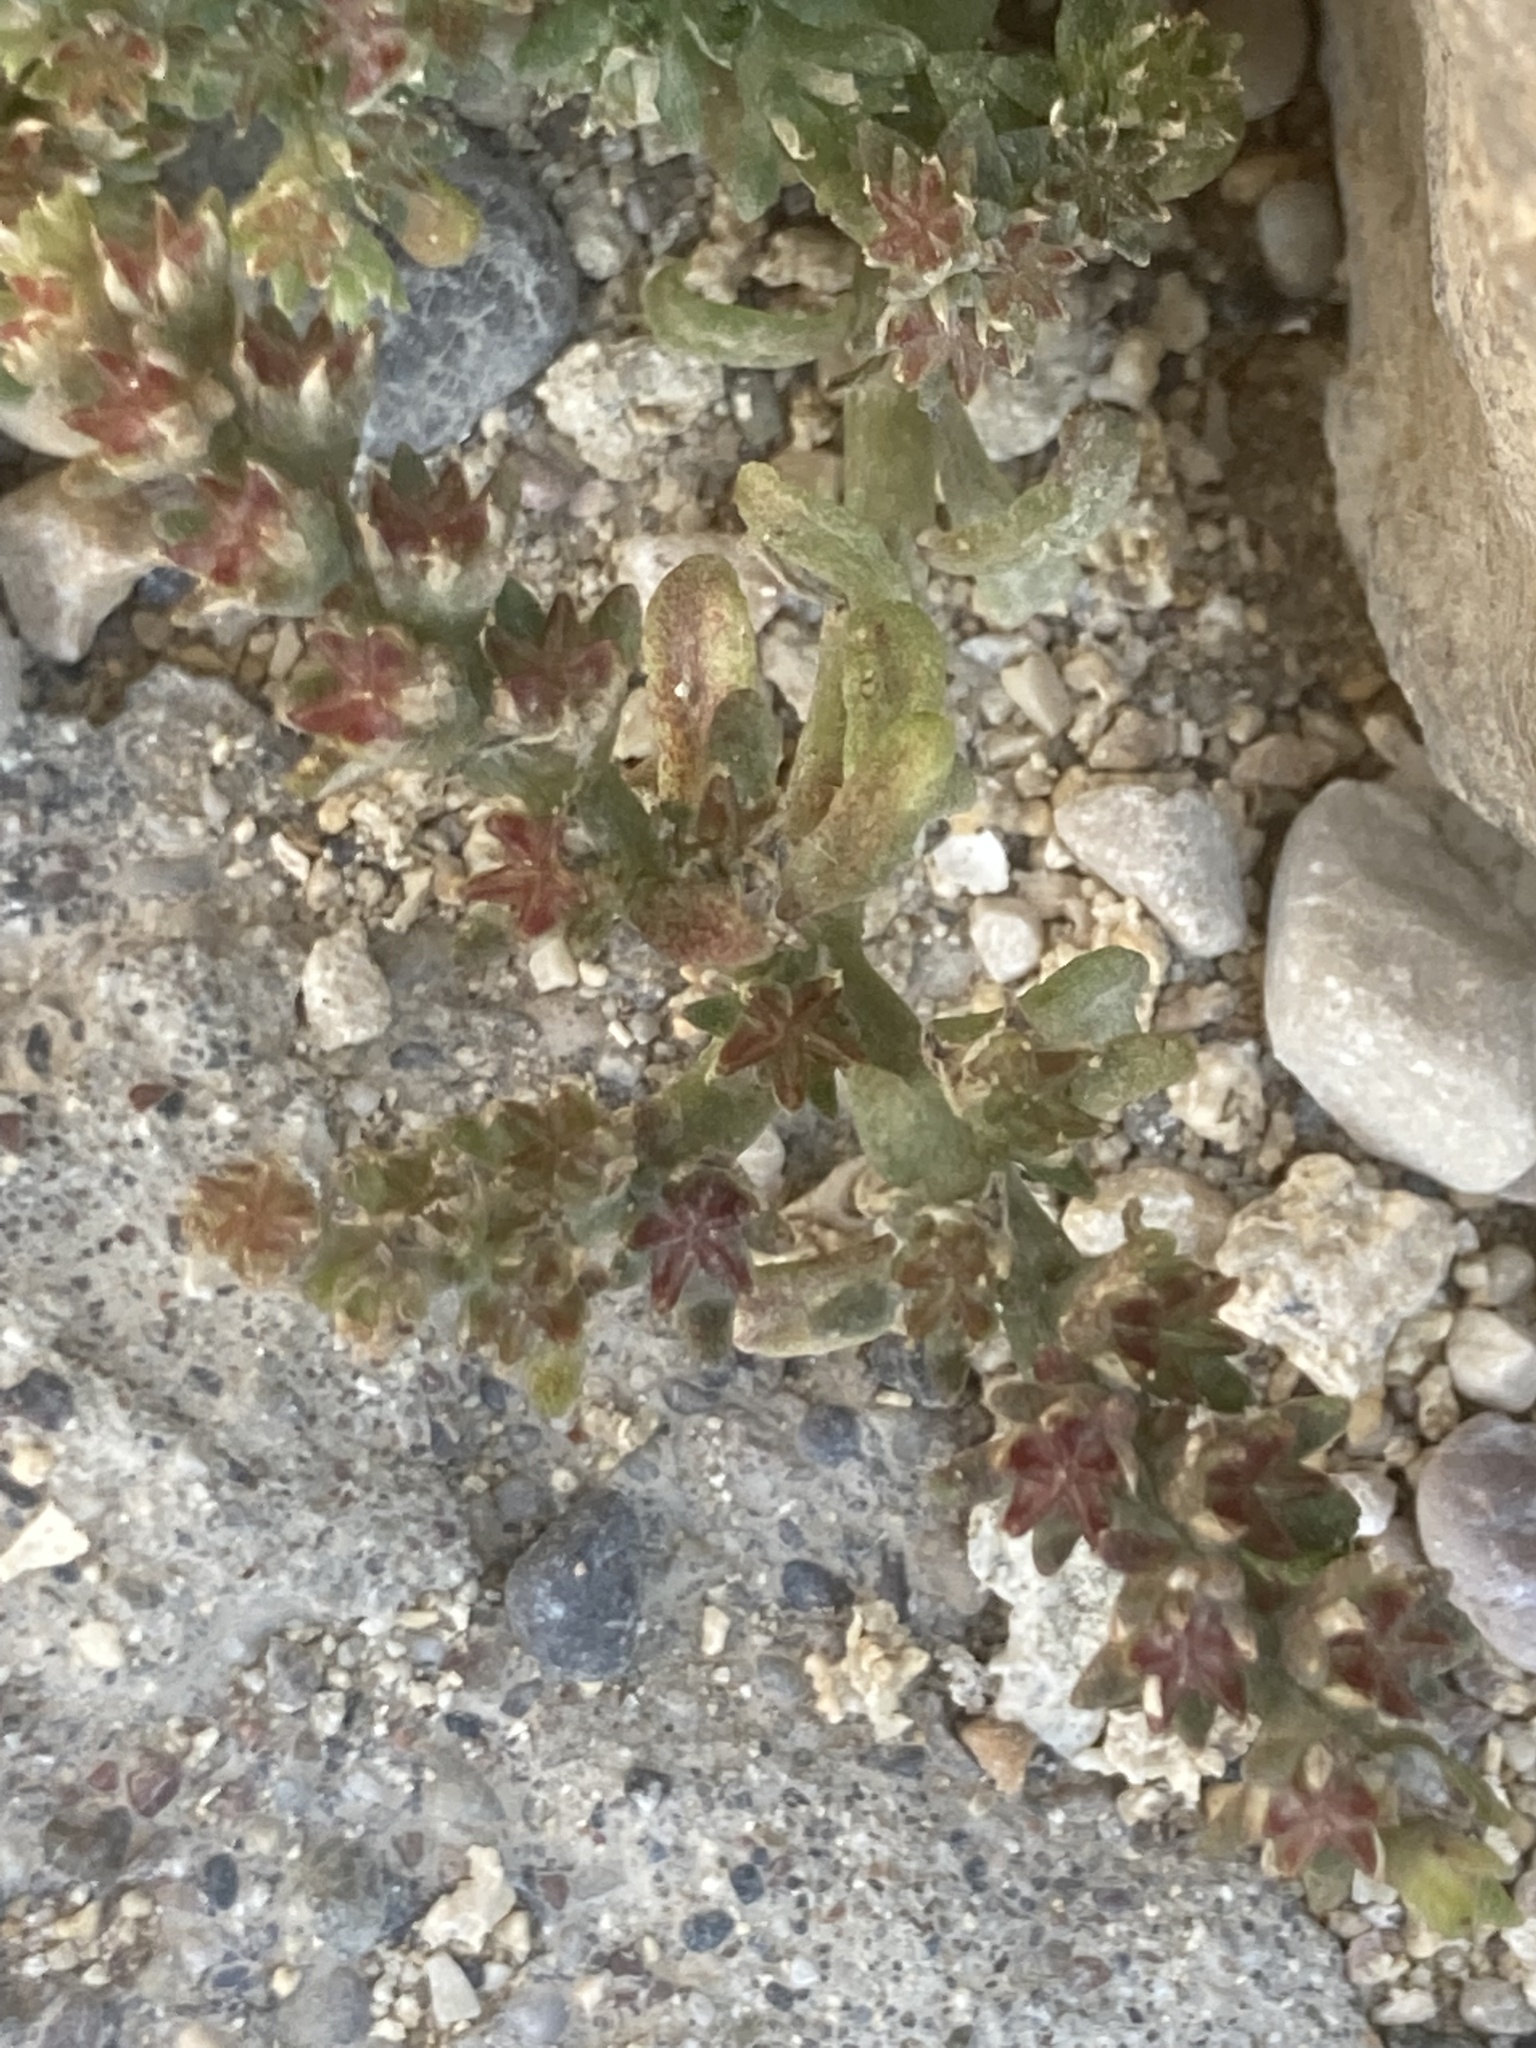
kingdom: Plantae
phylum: Tracheophyta
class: Magnoliopsida
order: Saxifragales
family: Crassulaceae
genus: Sedum
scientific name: Sedum litoreum
